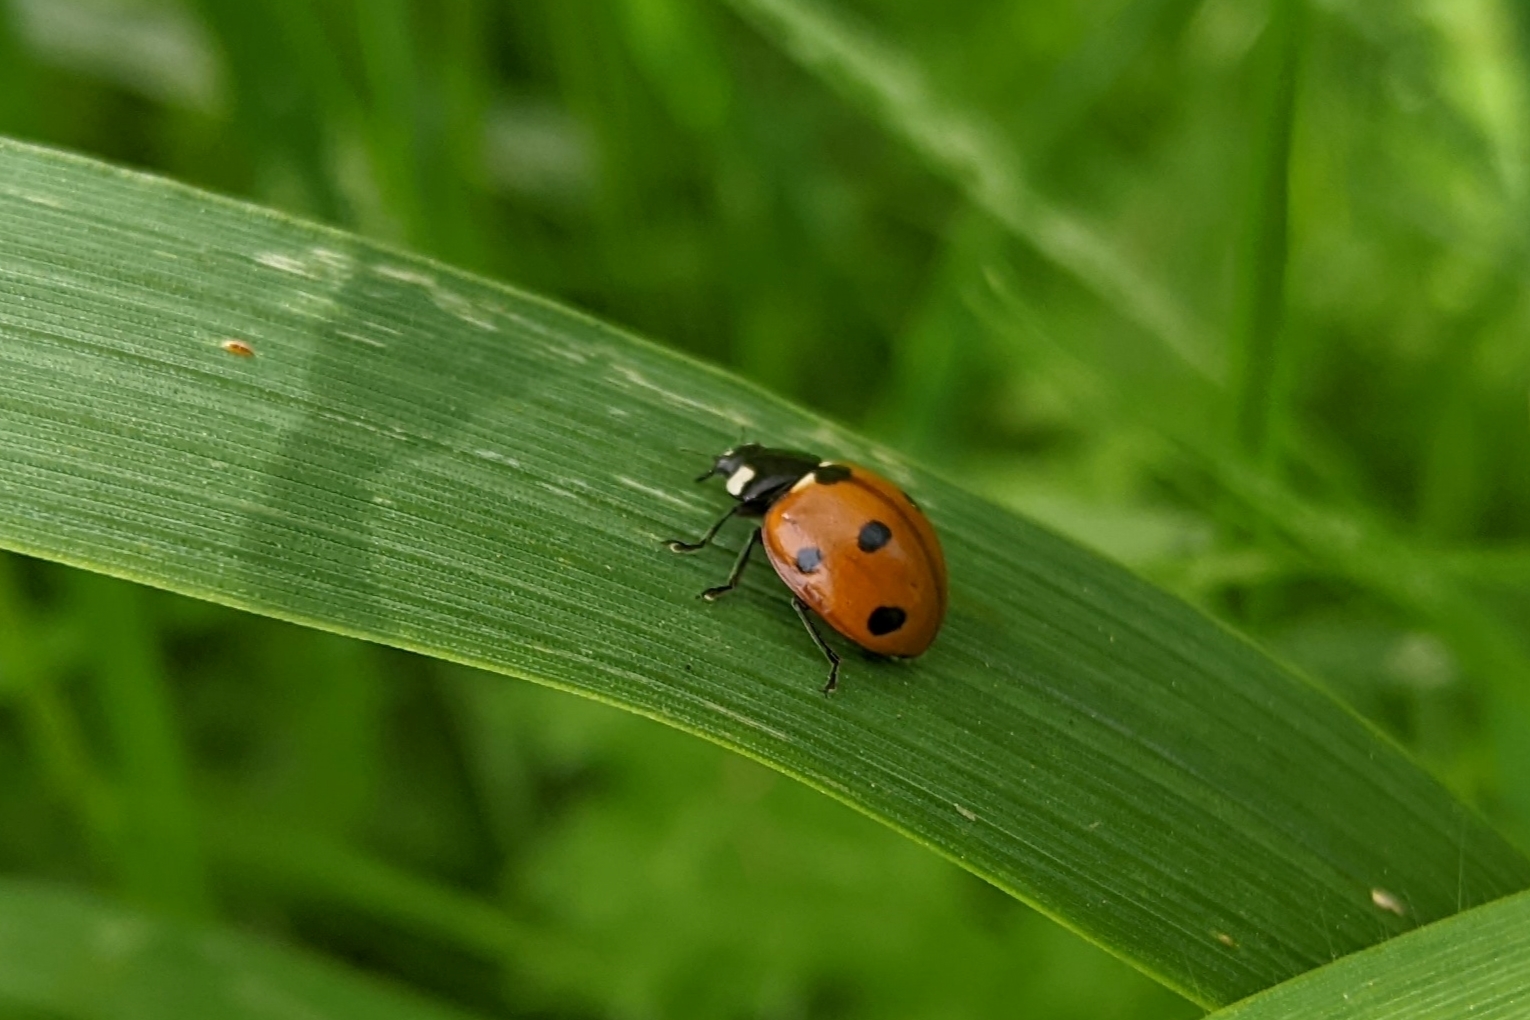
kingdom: Animalia
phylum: Arthropoda
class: Insecta
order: Coleoptera
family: Coccinellidae
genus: Coccinella
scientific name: Coccinella septempunctata
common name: Sevenspotted lady beetle
